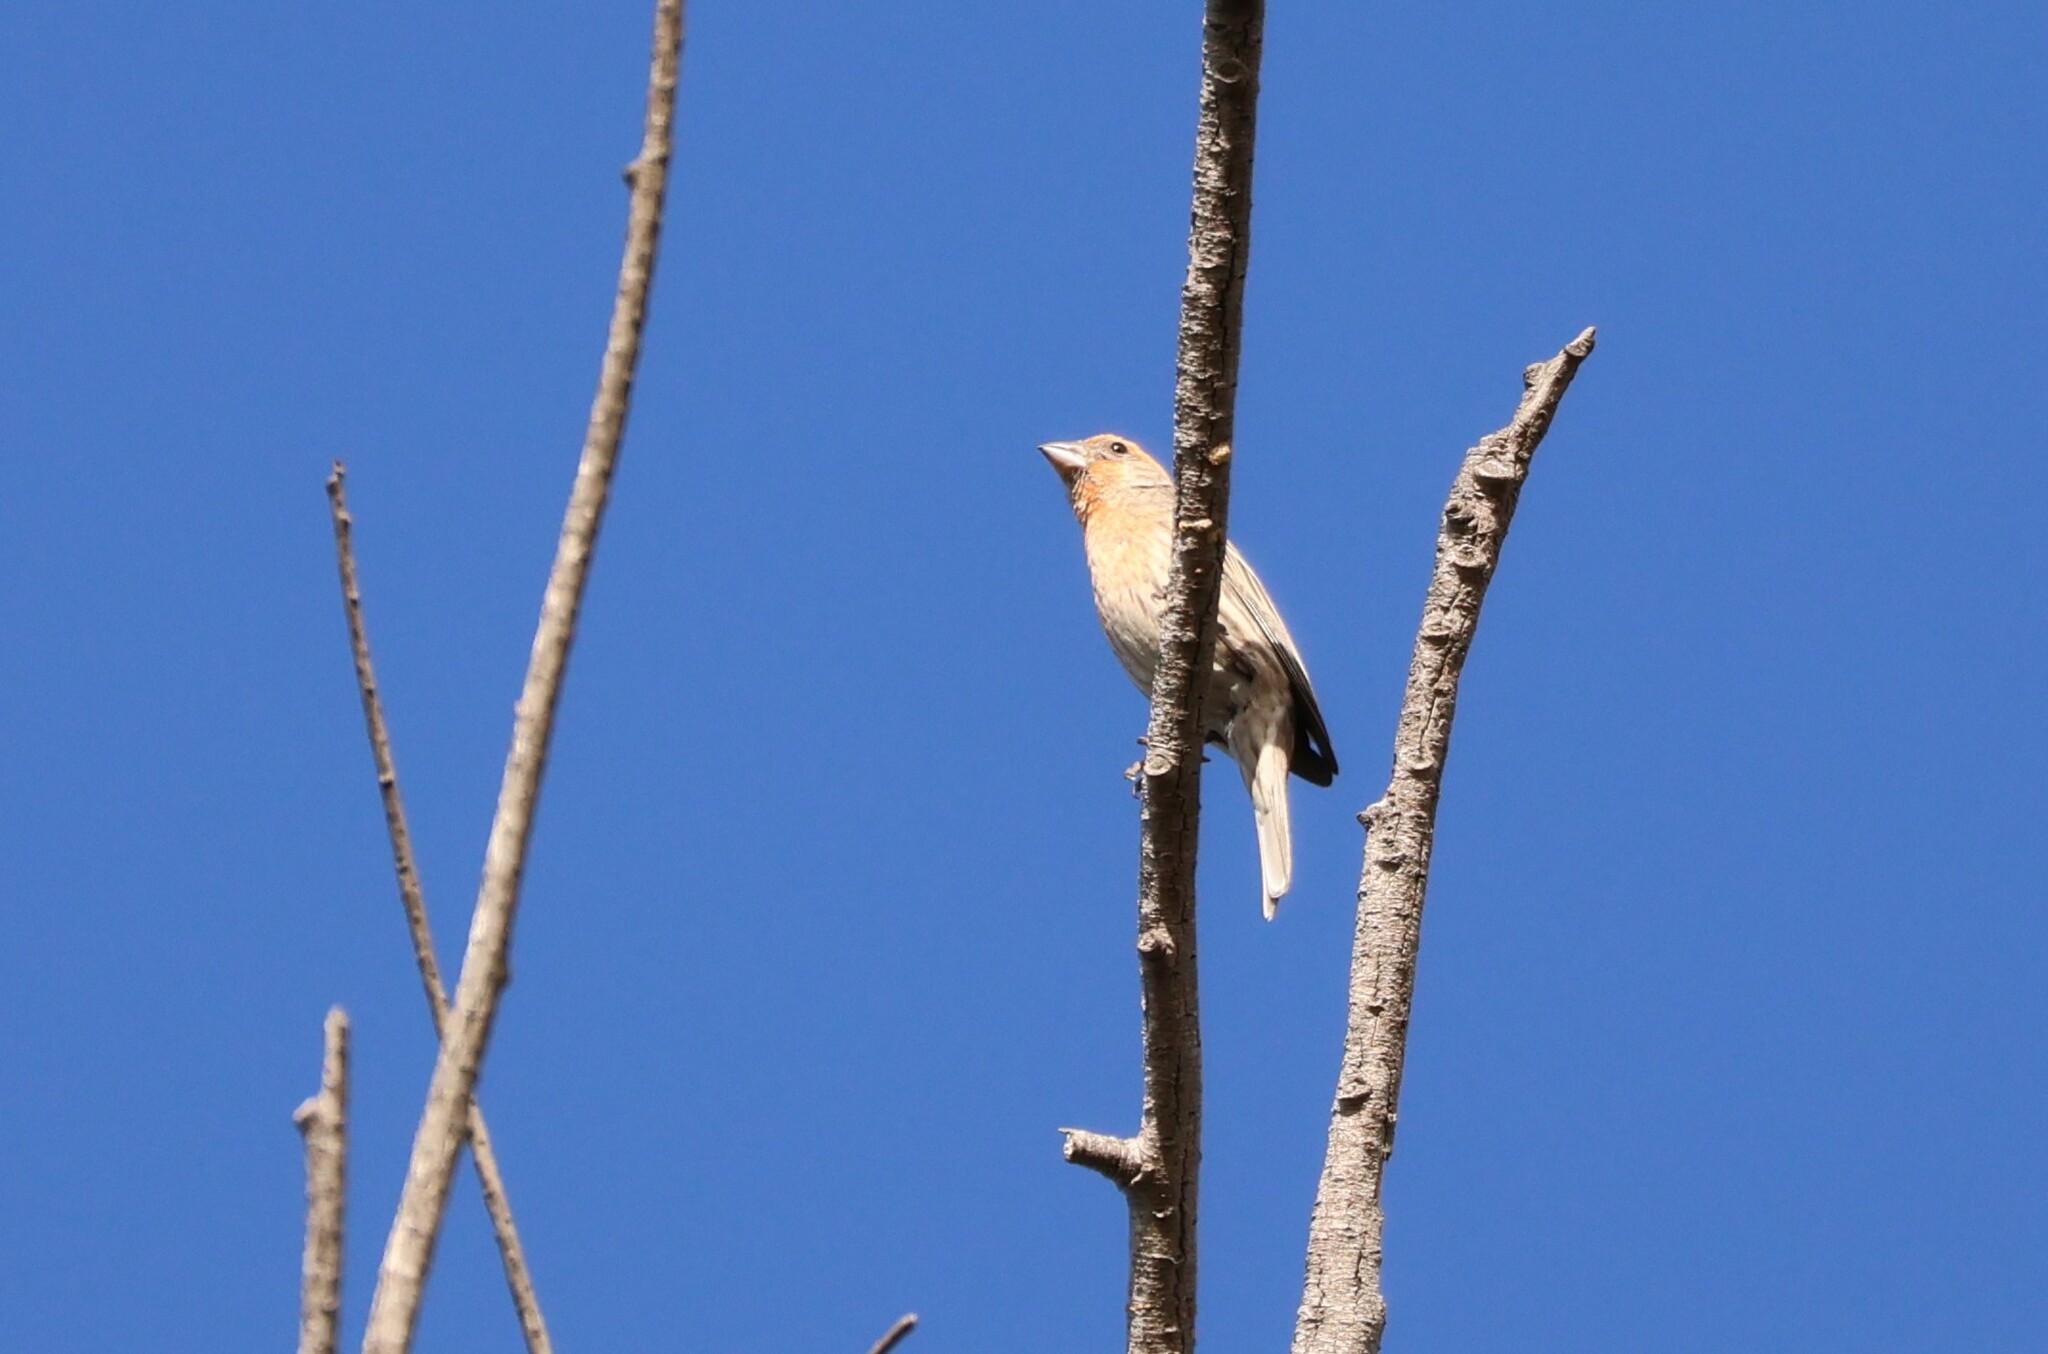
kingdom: Animalia
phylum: Chordata
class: Aves
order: Passeriformes
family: Fringillidae
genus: Haemorhous
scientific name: Haemorhous mexicanus
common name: House finch
